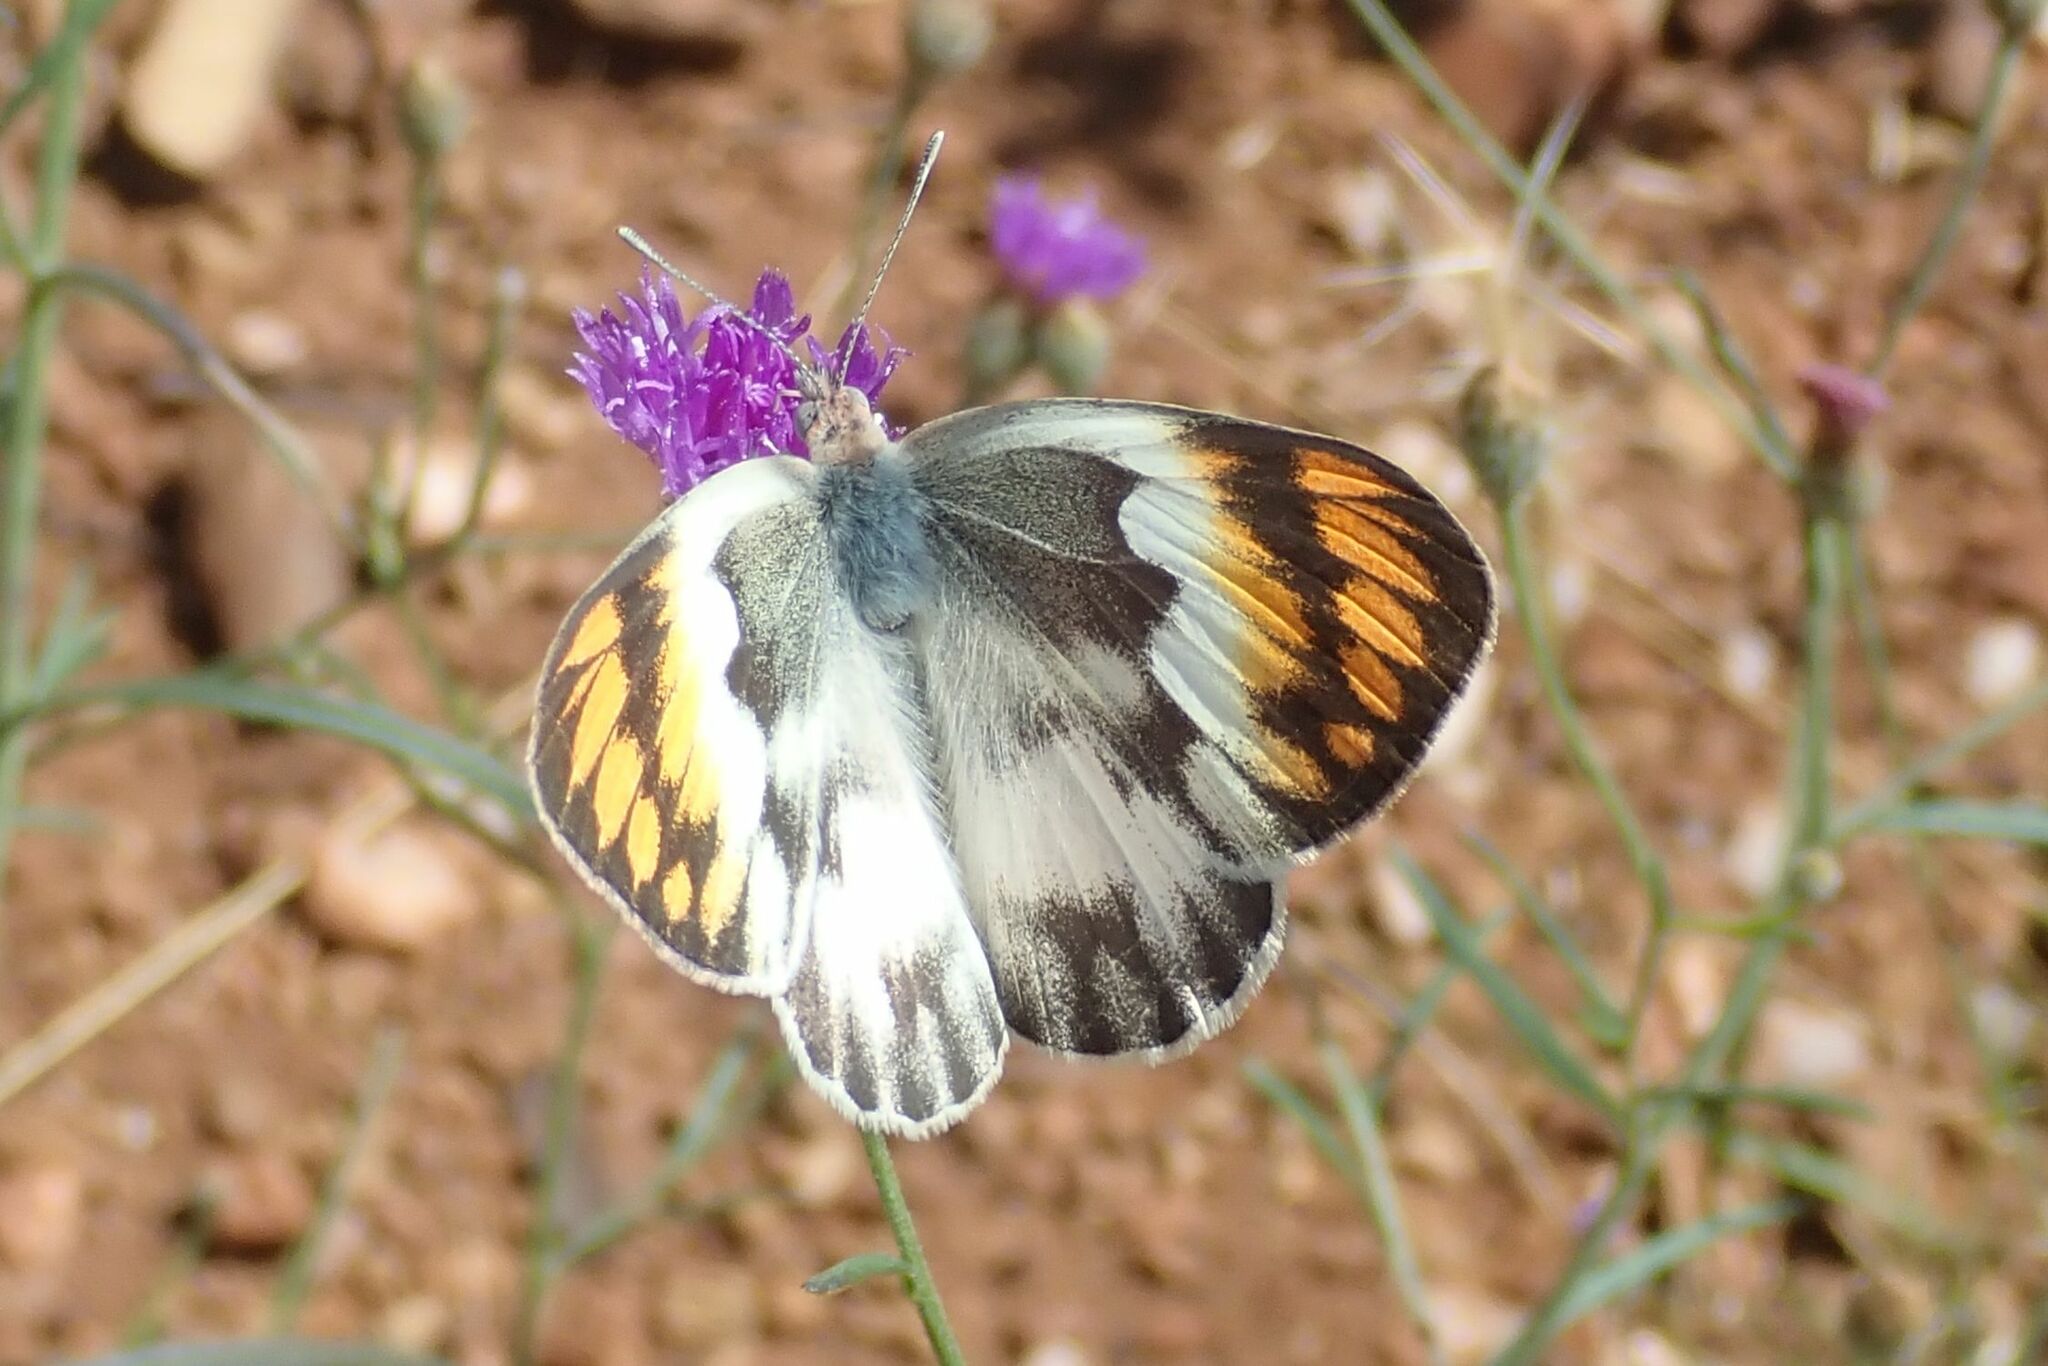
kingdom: Animalia
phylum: Arthropoda
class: Insecta
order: Lepidoptera
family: Pieridae
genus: Colotis
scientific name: Colotis evenina
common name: Common orange tip
